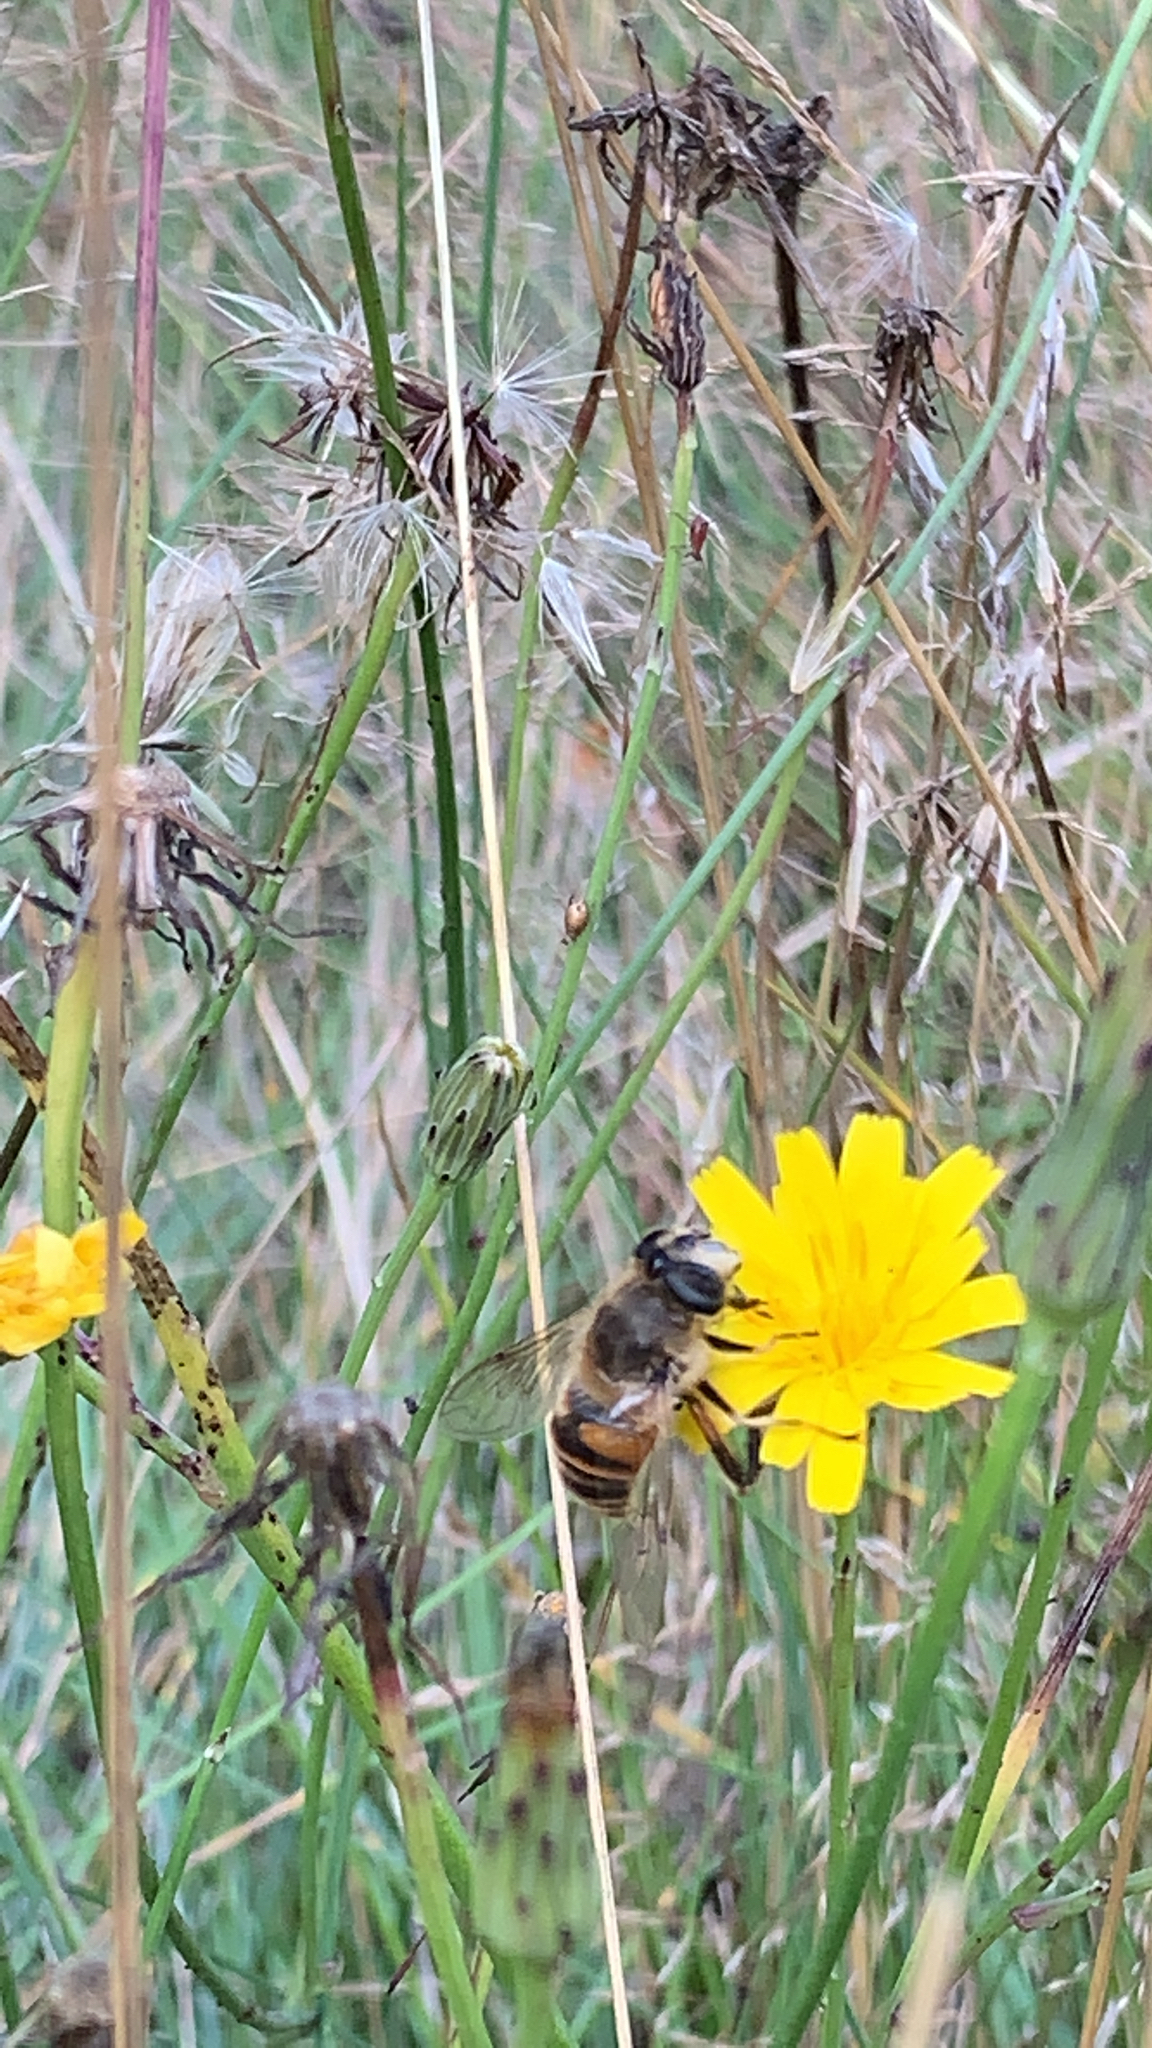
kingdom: Animalia
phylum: Arthropoda
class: Insecta
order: Diptera
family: Syrphidae
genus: Eristalis
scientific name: Eristalis tenax
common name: Drone fly
